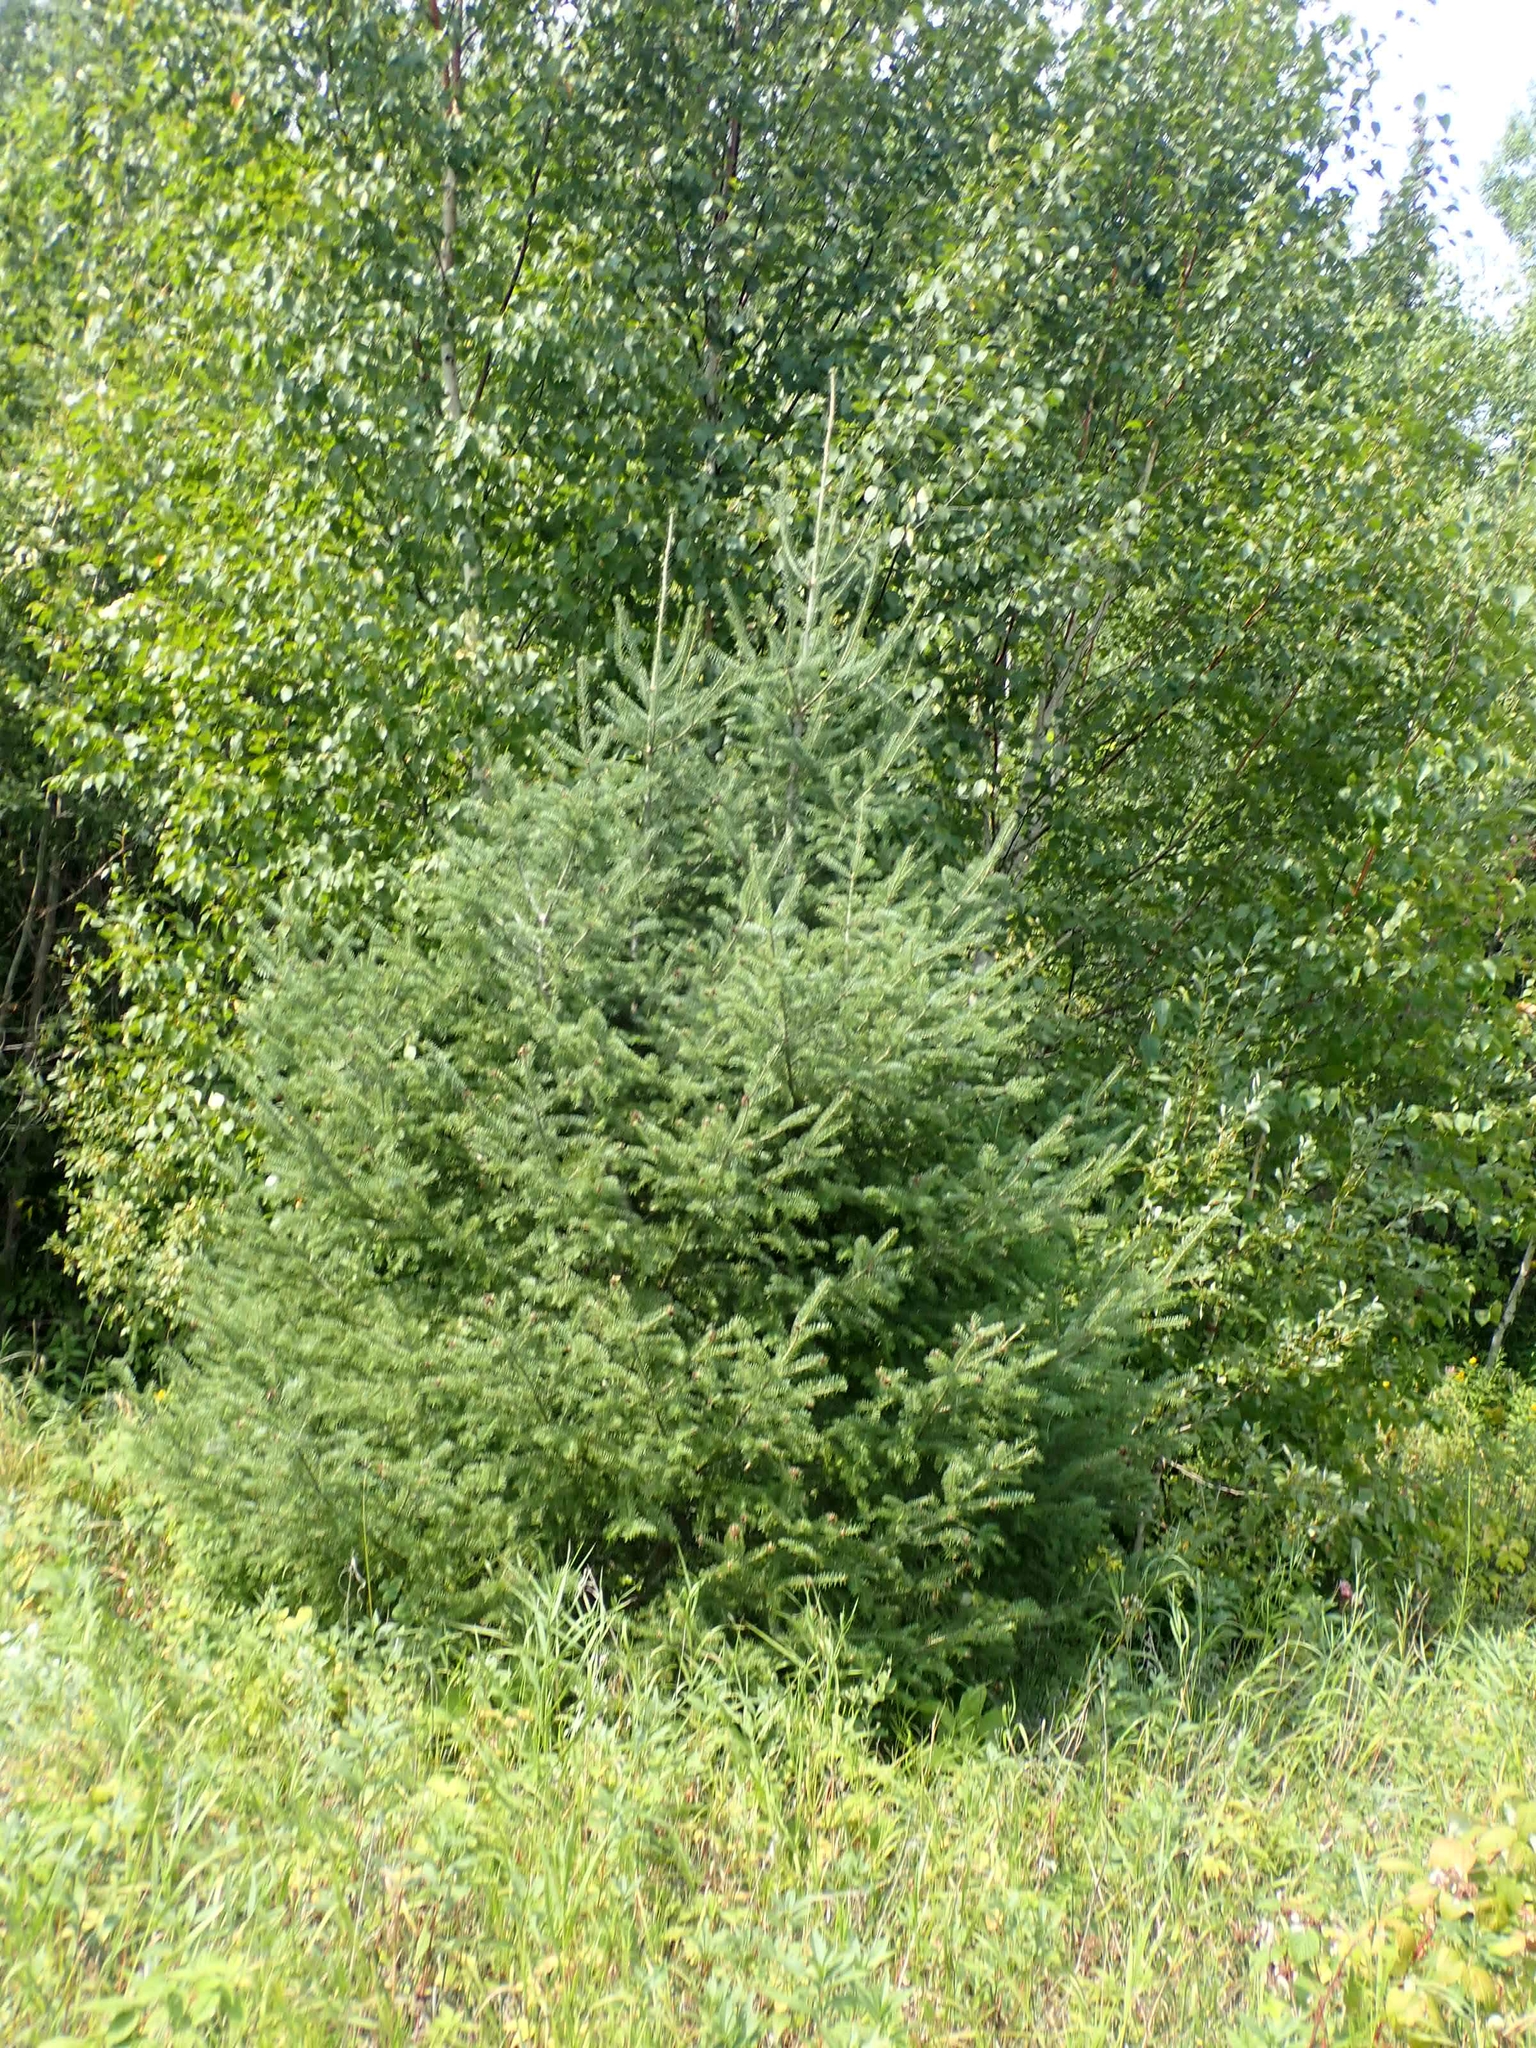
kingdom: Plantae
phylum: Tracheophyta
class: Pinopsida
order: Pinales
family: Pinaceae
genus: Picea
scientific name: Picea glauca
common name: White spruce
